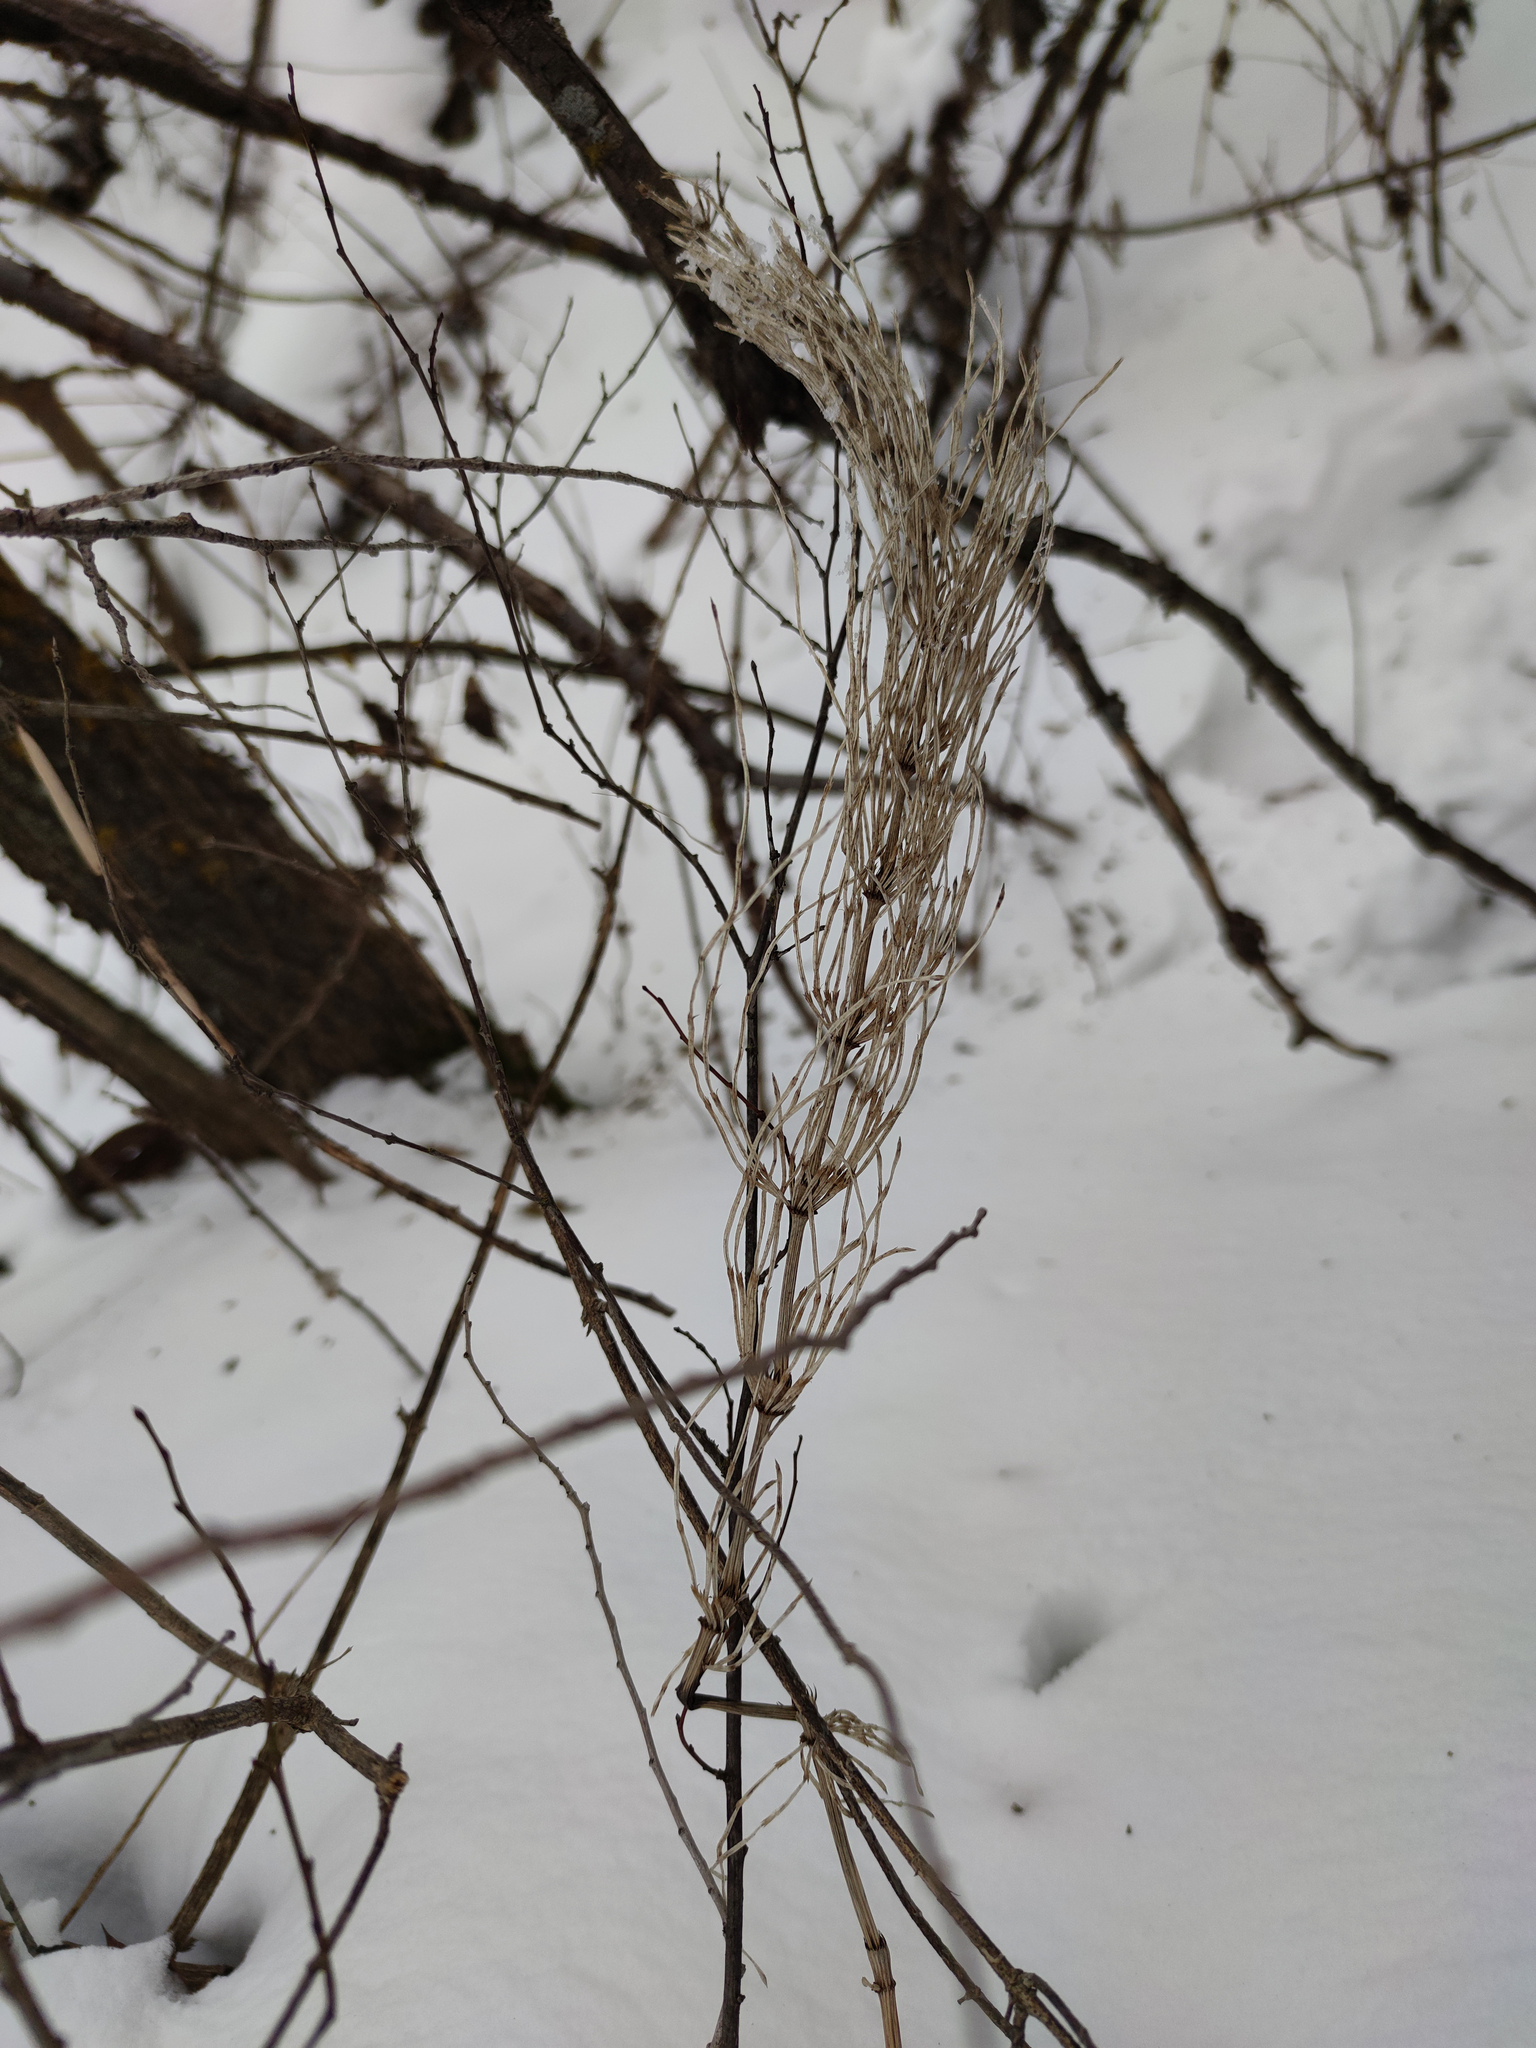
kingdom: Plantae
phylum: Tracheophyta
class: Polypodiopsida
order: Equisetales
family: Equisetaceae
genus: Equisetum
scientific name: Equisetum arvense
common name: Field horsetail
